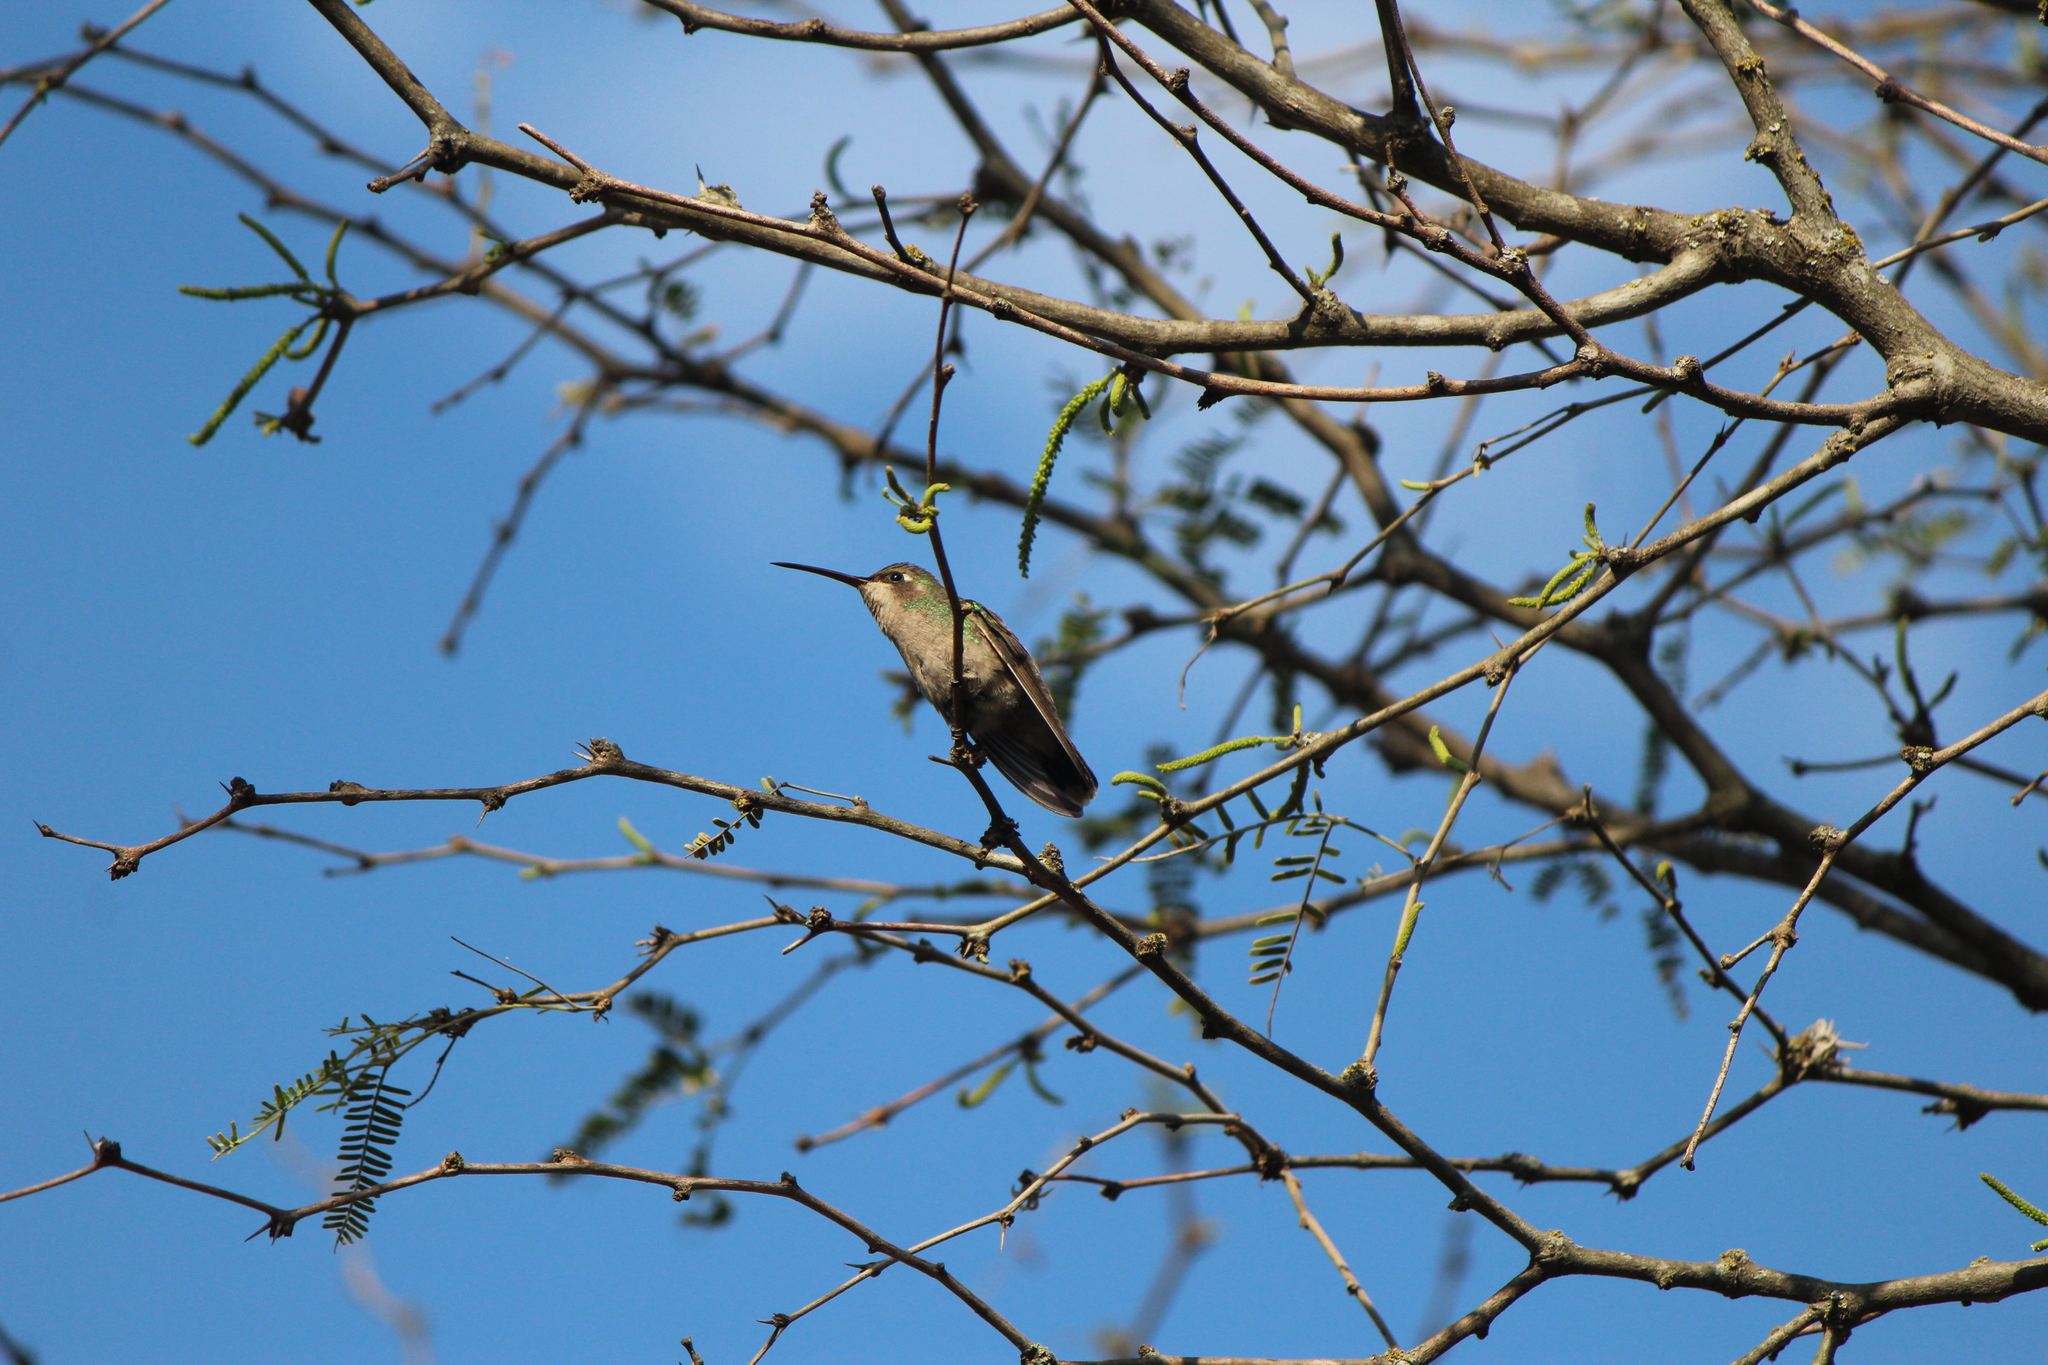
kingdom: Animalia
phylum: Chordata
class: Aves
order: Apodiformes
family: Trochilidae
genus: Eugenes
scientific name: Eugenes fulgens
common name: Magnificent hummingbird
